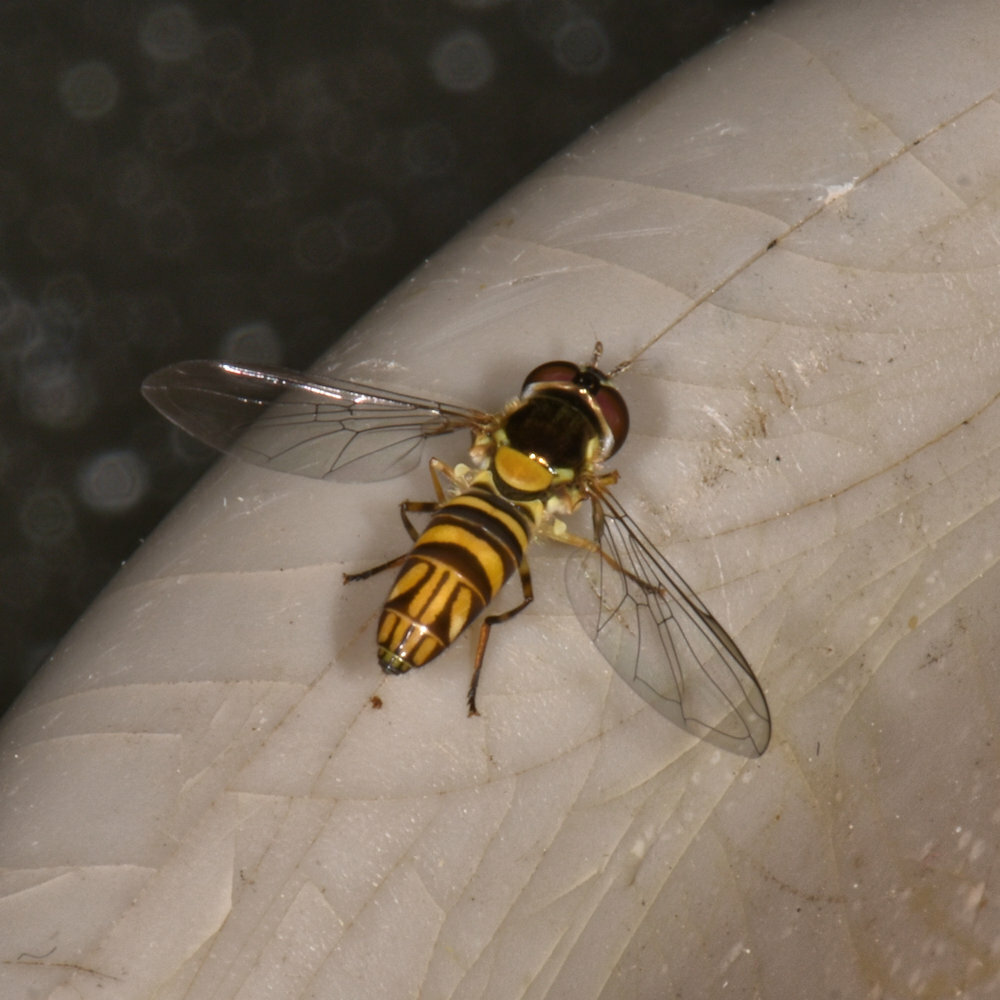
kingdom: Animalia
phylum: Arthropoda
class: Insecta
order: Diptera
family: Syrphidae
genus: Allograpta
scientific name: Allograpta obliqua
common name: Common oblique syrphid
